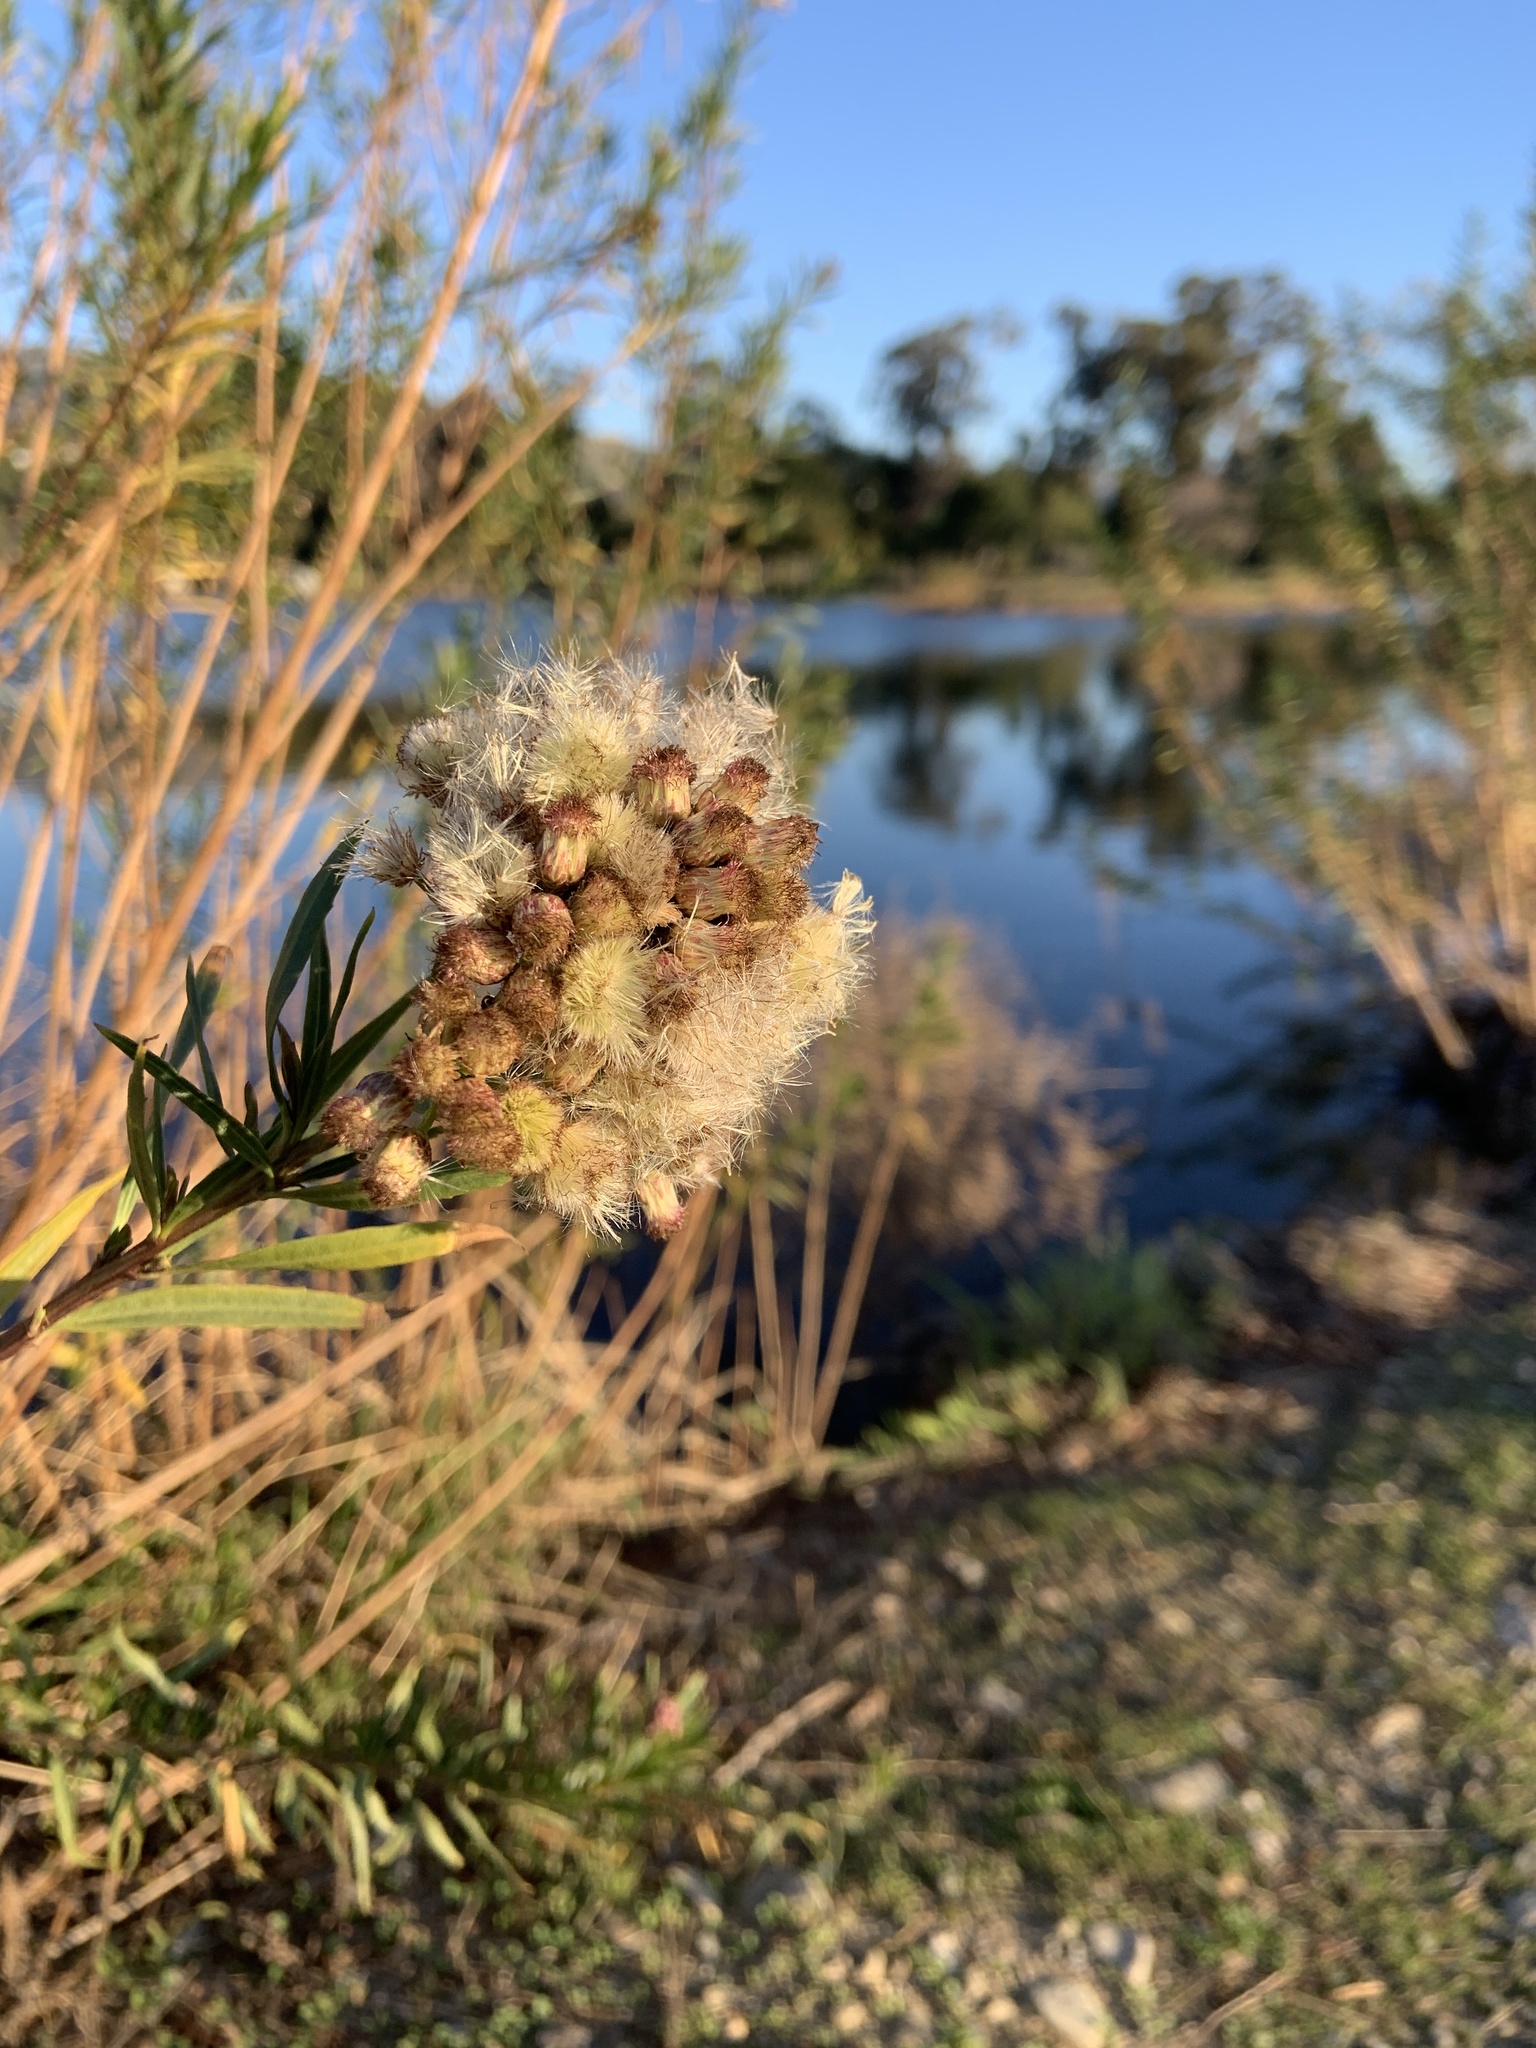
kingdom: Plantae
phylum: Tracheophyta
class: Magnoliopsida
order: Asterales
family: Asteraceae
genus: Baccharis
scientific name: Baccharis salicifolia
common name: Sticky baccharis
